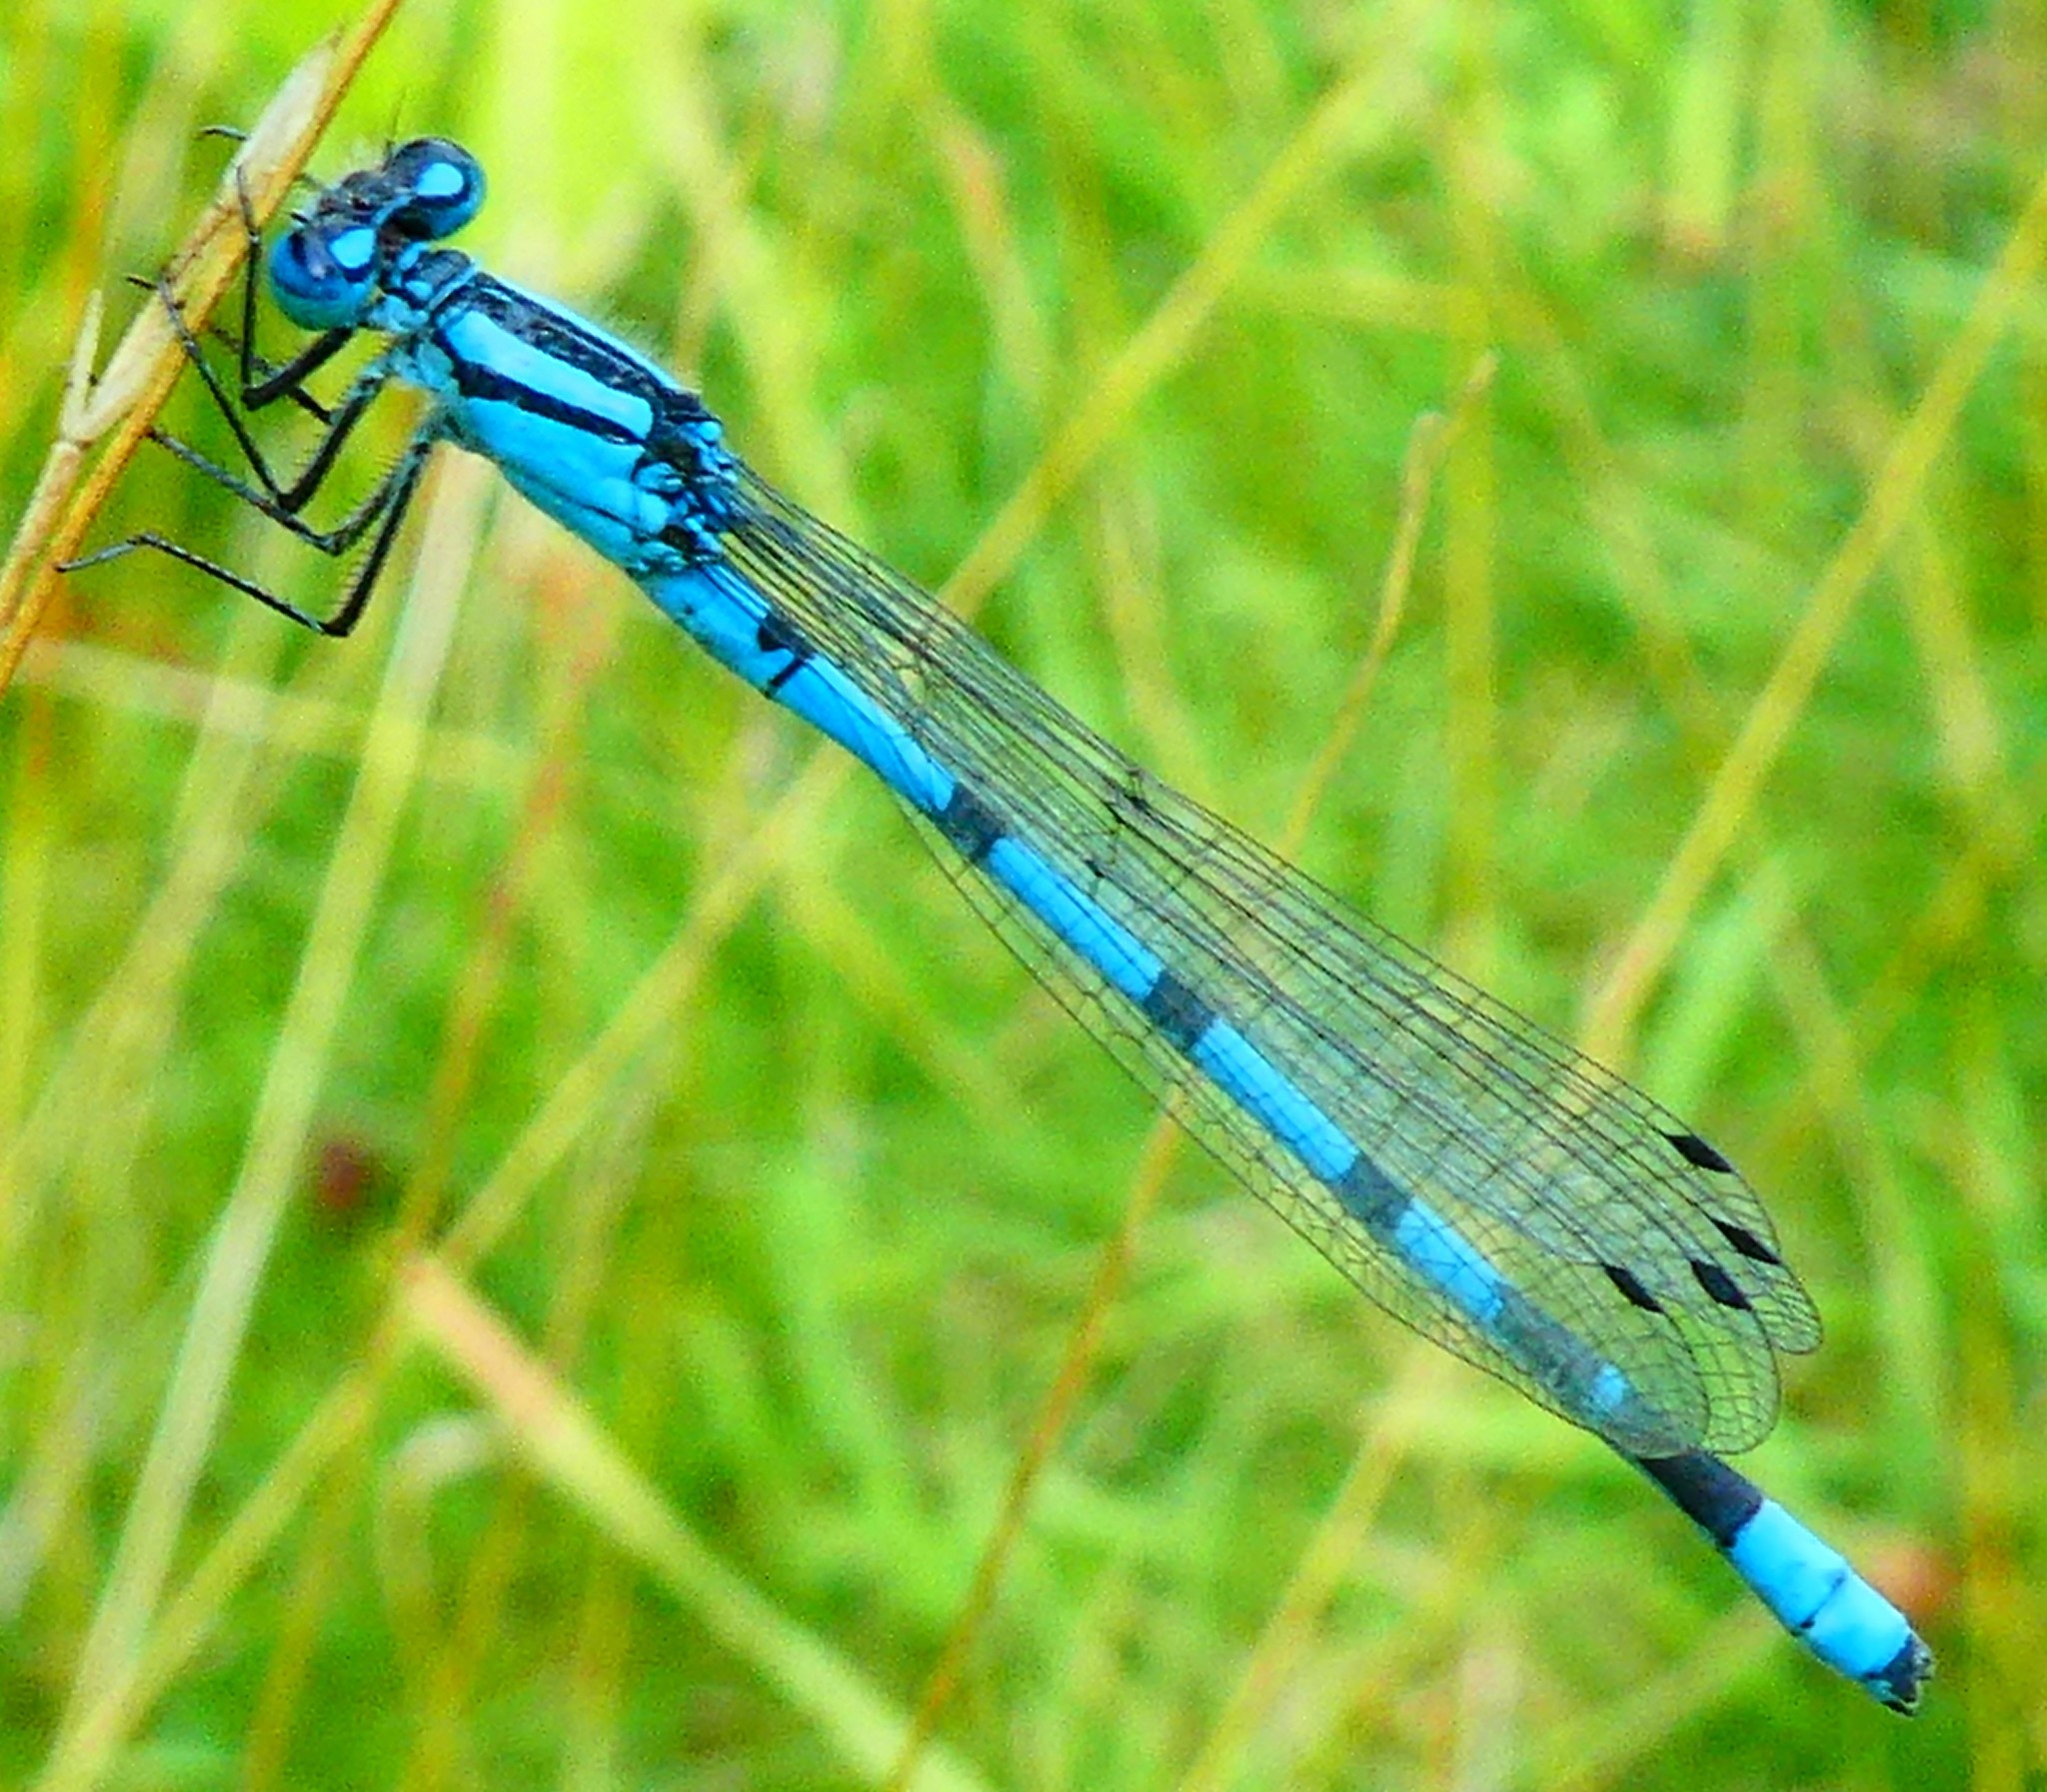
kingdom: Animalia
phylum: Arthropoda
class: Insecta
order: Odonata
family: Coenagrionidae
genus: Enallagma
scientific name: Enallagma cyathigerum
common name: Common blue damselfly
